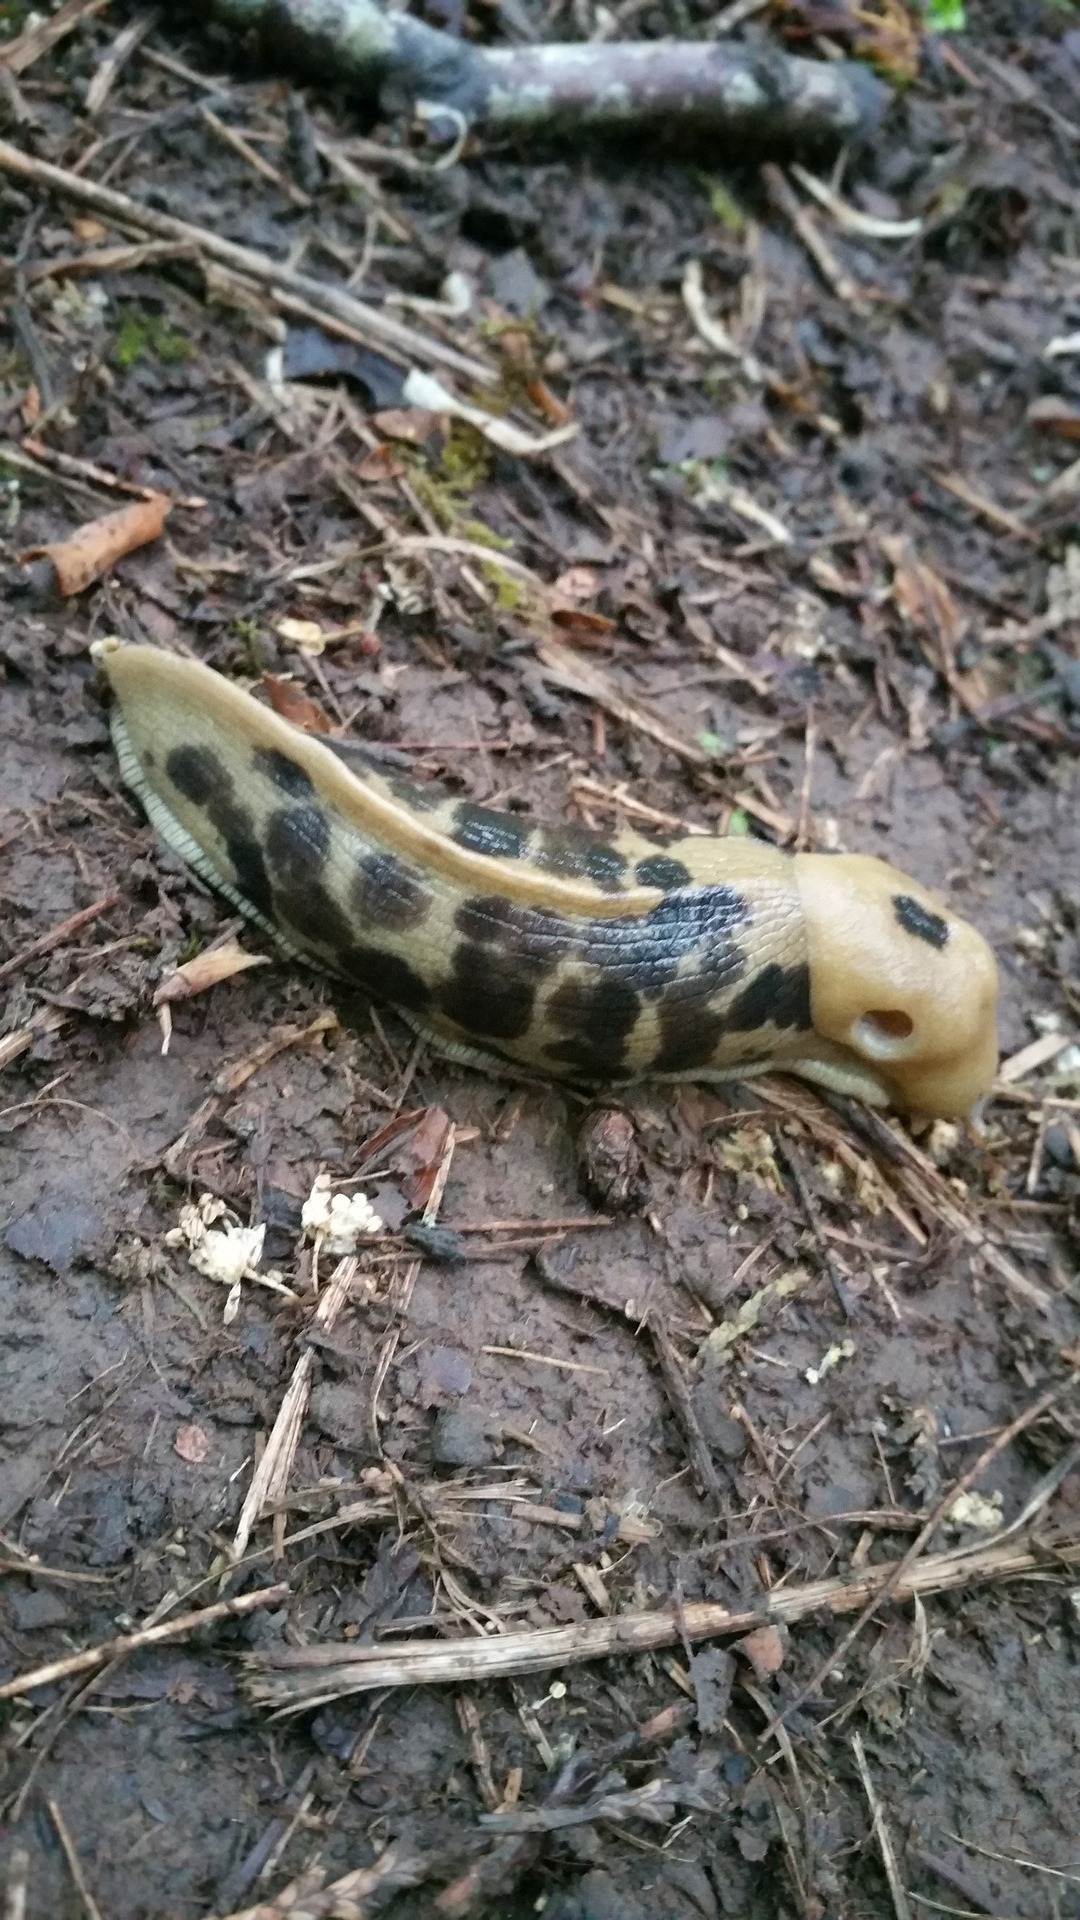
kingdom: Animalia
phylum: Mollusca
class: Gastropoda
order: Stylommatophora
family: Ariolimacidae
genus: Ariolimax
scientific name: Ariolimax columbianus
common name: Pacific banana slug
